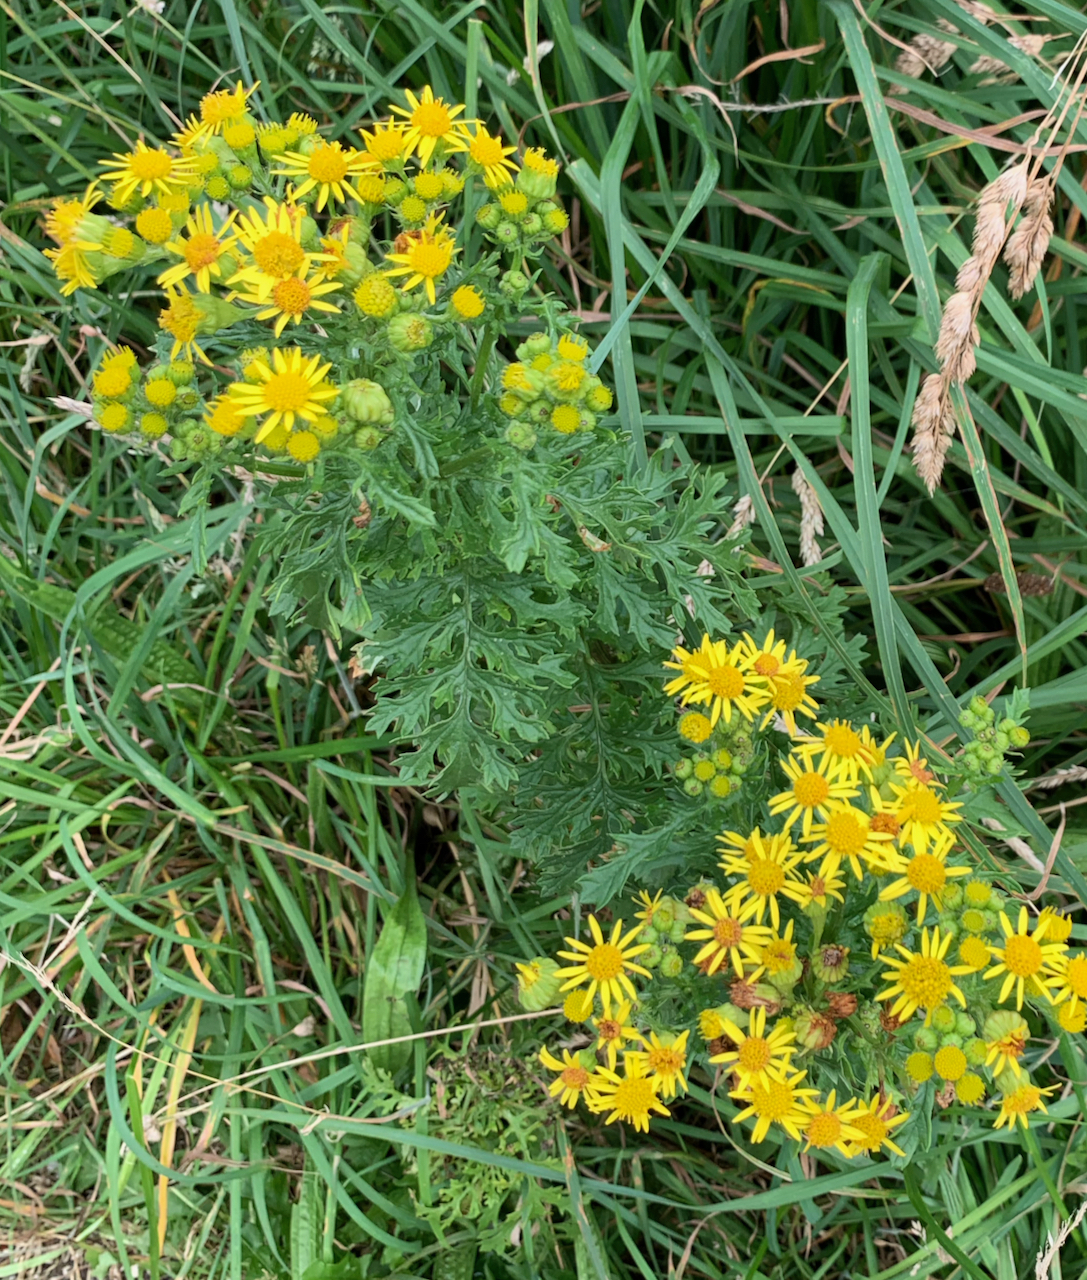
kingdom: Plantae
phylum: Tracheophyta
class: Magnoliopsida
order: Asterales
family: Asteraceae
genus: Jacobaea
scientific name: Jacobaea vulgaris
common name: Stinking willie
